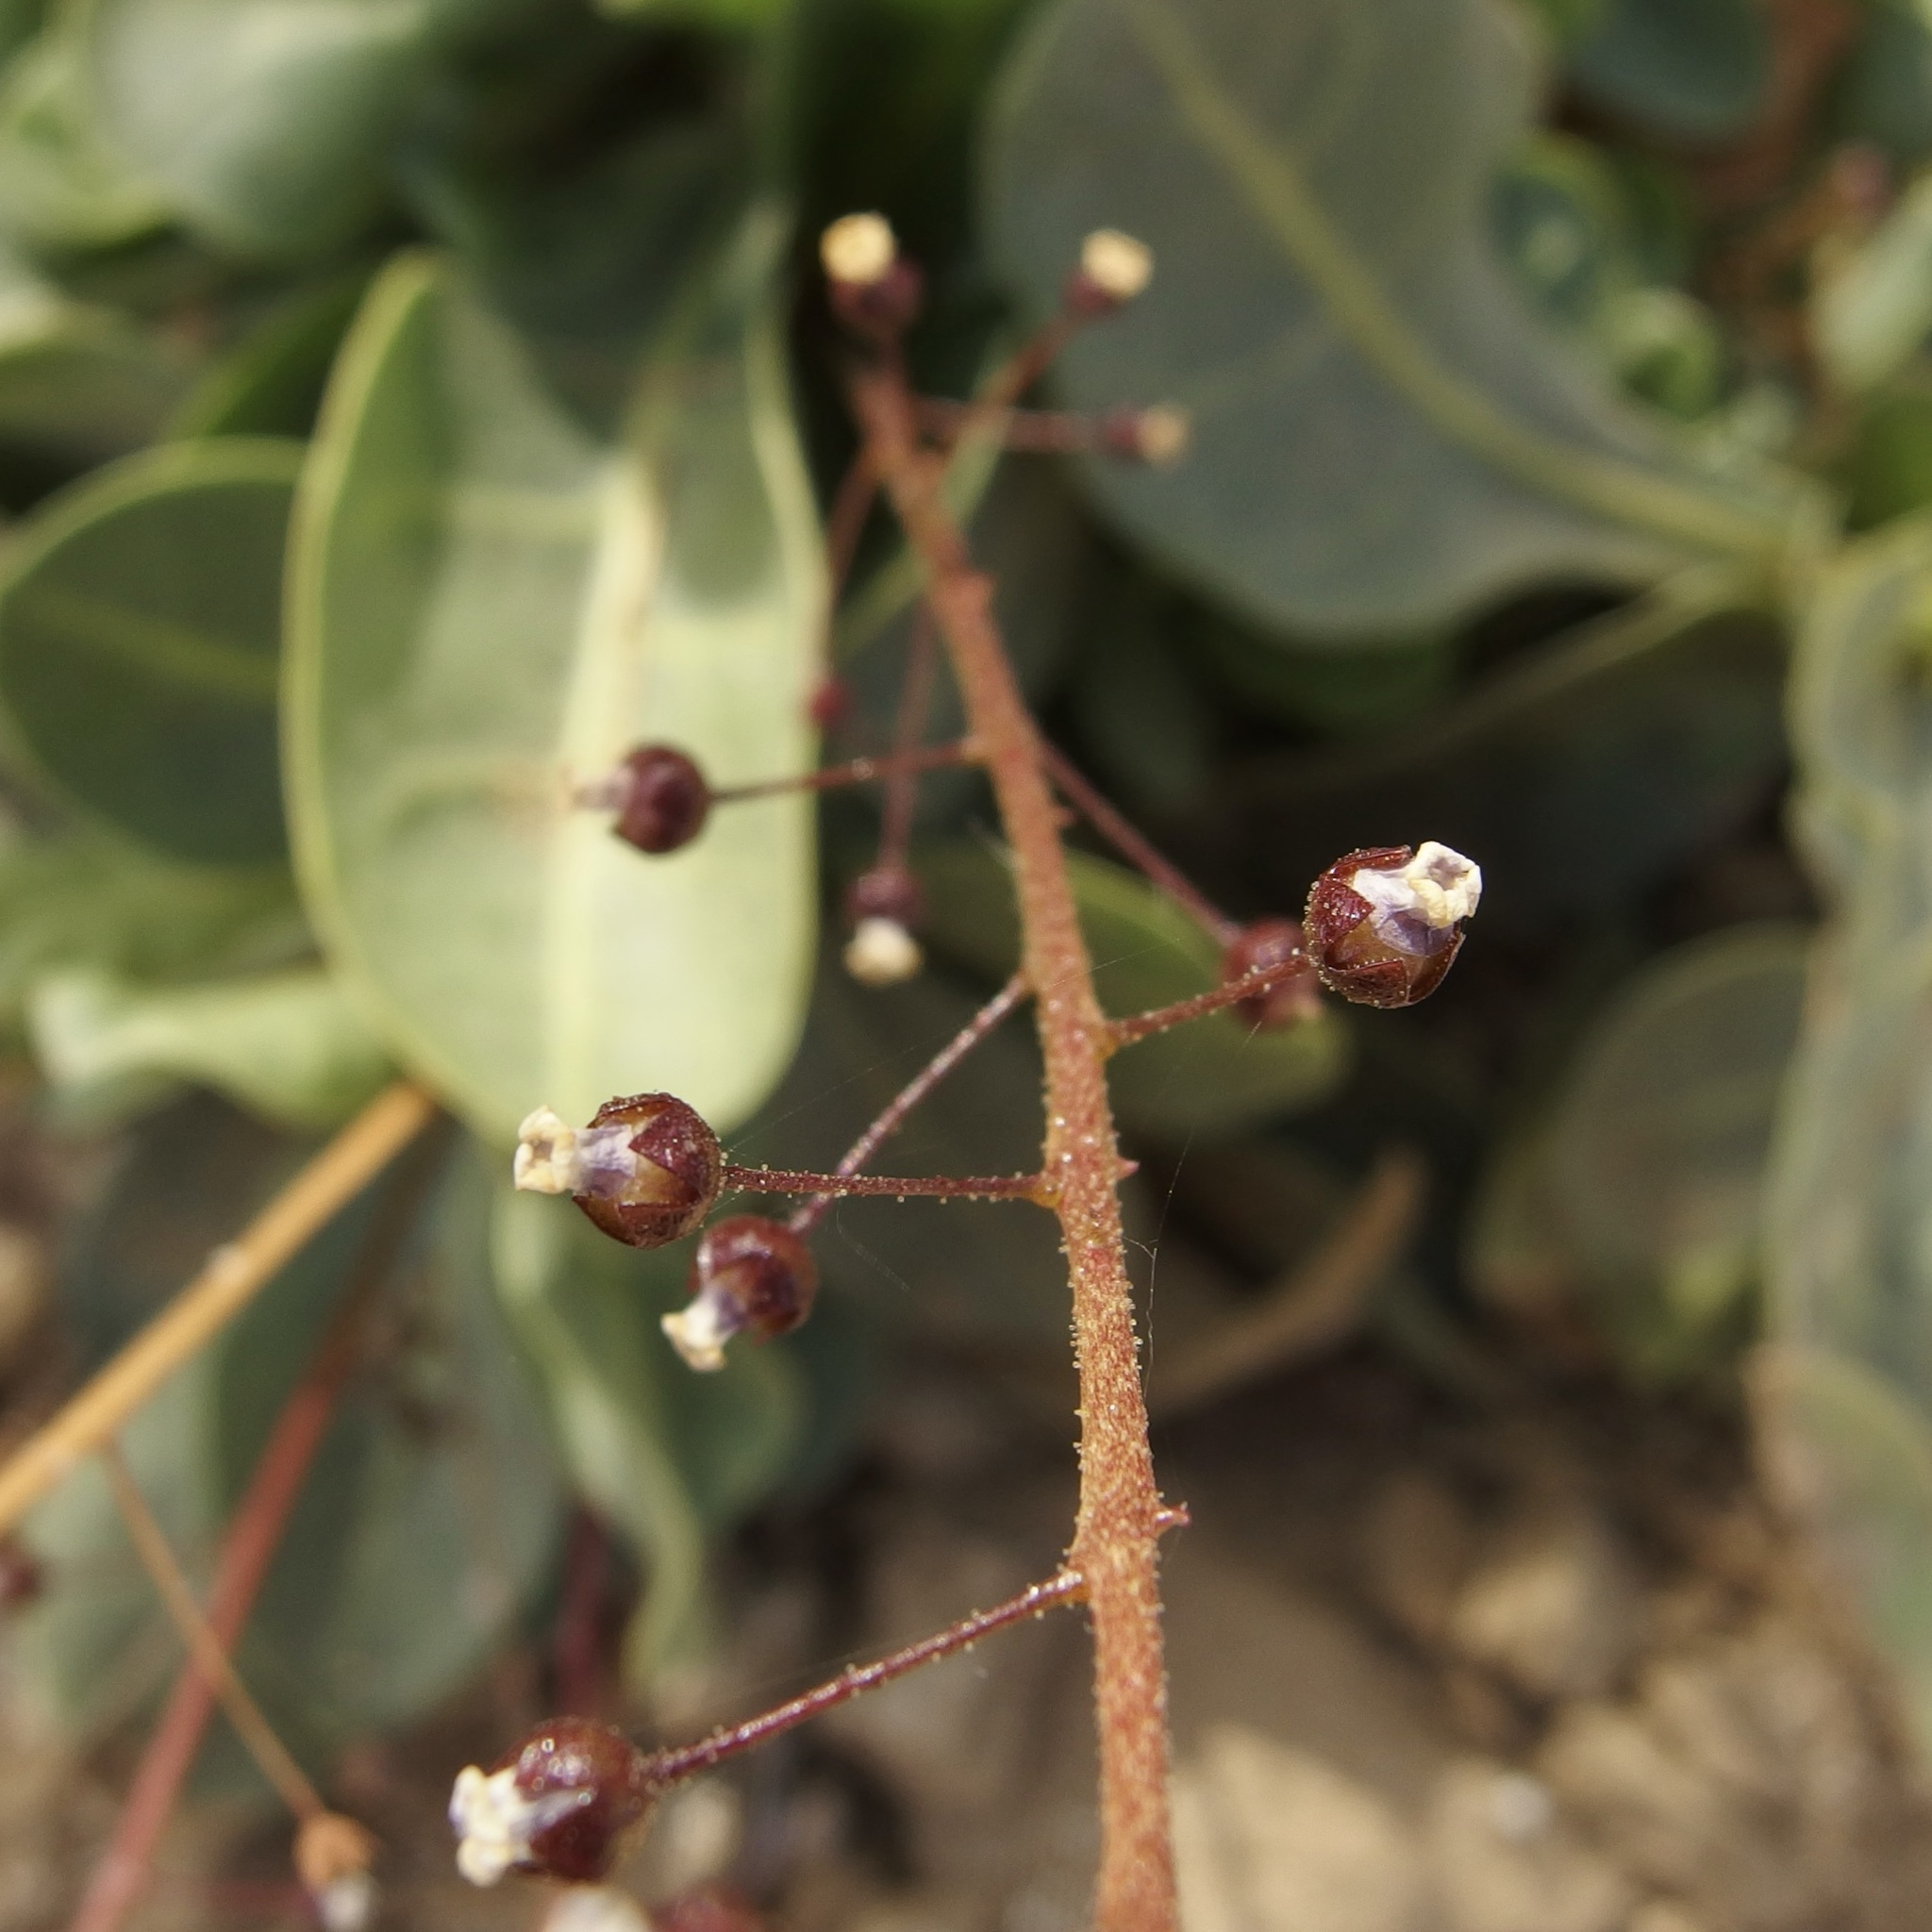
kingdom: Plantae
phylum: Tracheophyta
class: Magnoliopsida
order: Ericales
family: Primulaceae
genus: Samolus
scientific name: Samolus ebracteatus
